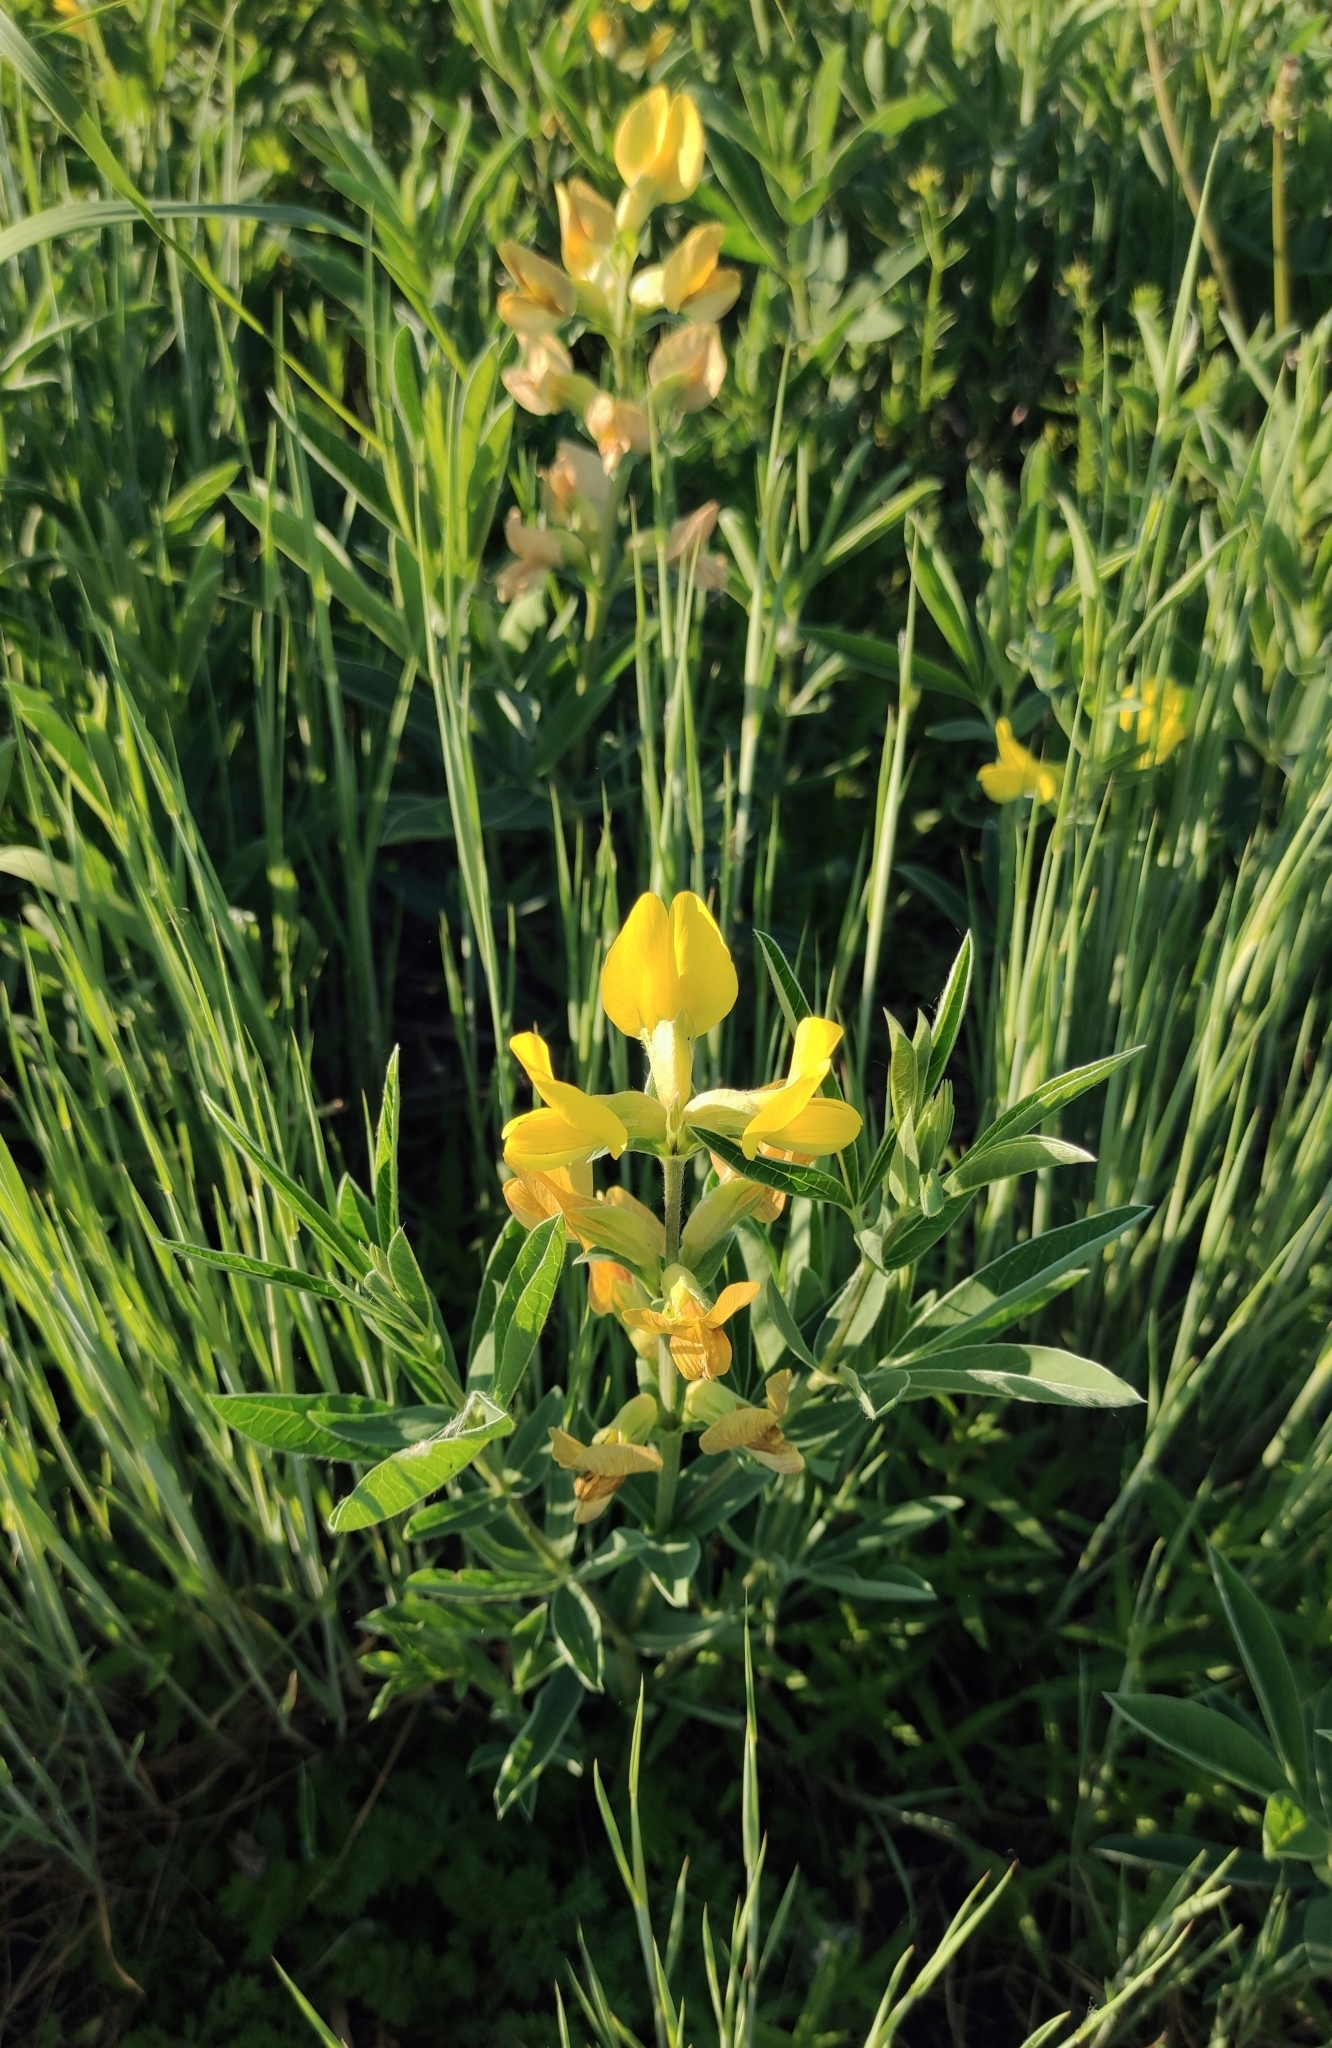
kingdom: Plantae
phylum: Tracheophyta
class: Magnoliopsida
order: Fabales
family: Fabaceae
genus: Thermopsis
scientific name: Thermopsis lanceolata
